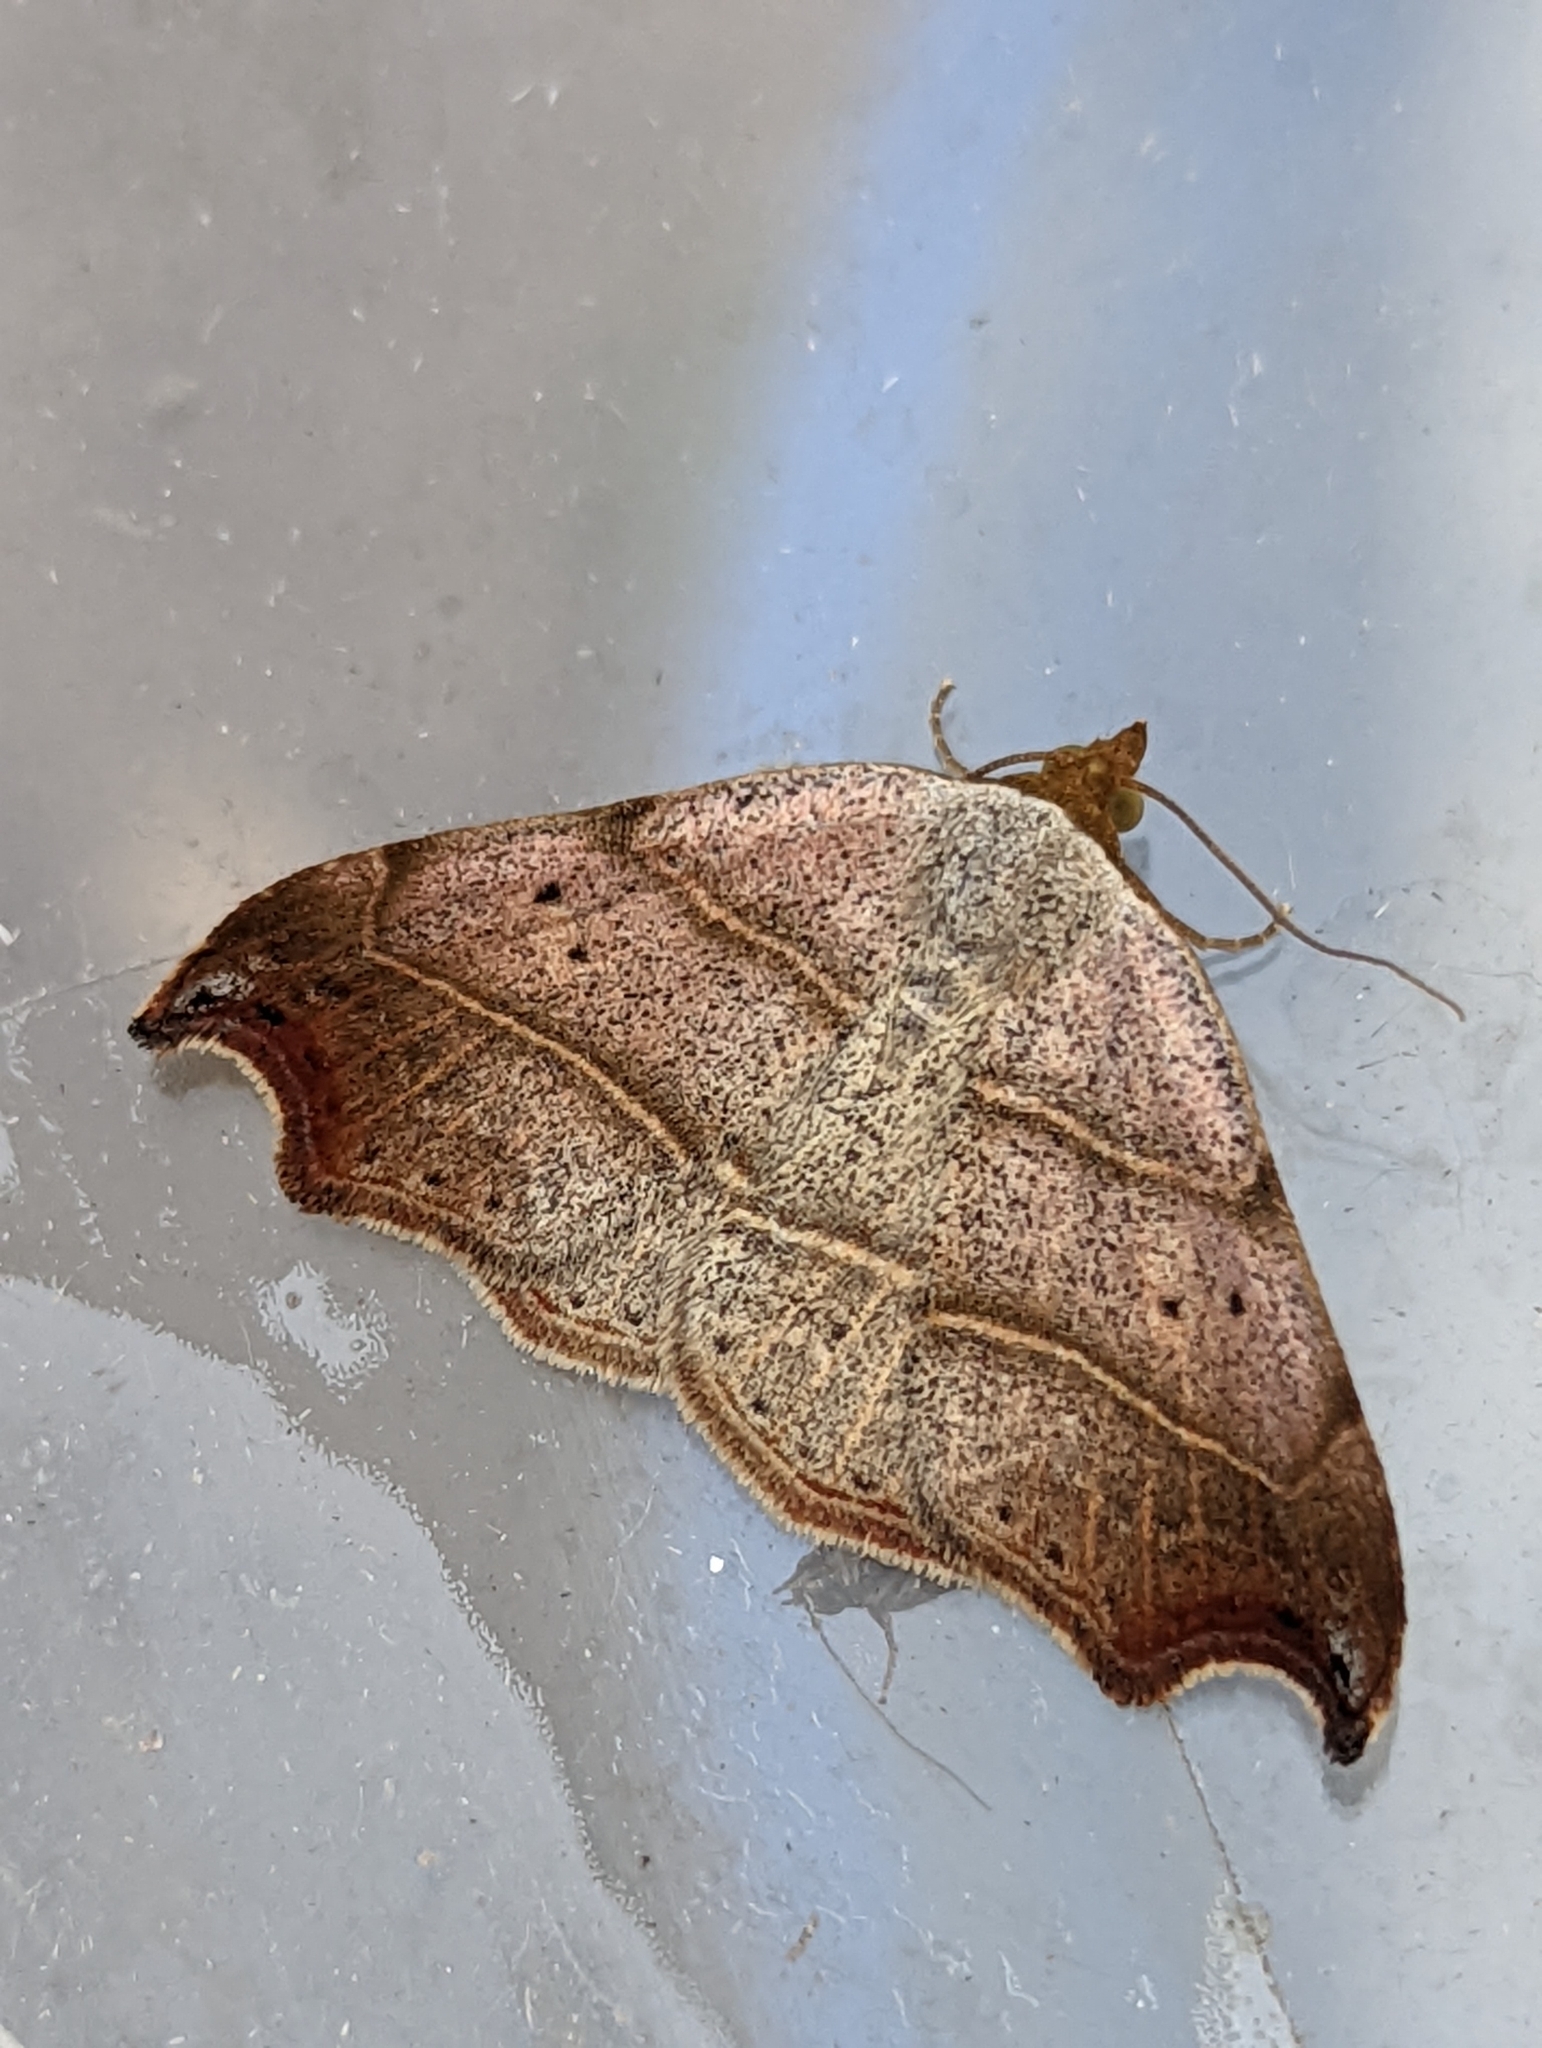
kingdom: Animalia
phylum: Arthropoda
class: Insecta
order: Lepidoptera
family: Erebidae
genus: Laspeyria
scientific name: Laspeyria flexula
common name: Beautiful hook-tip
